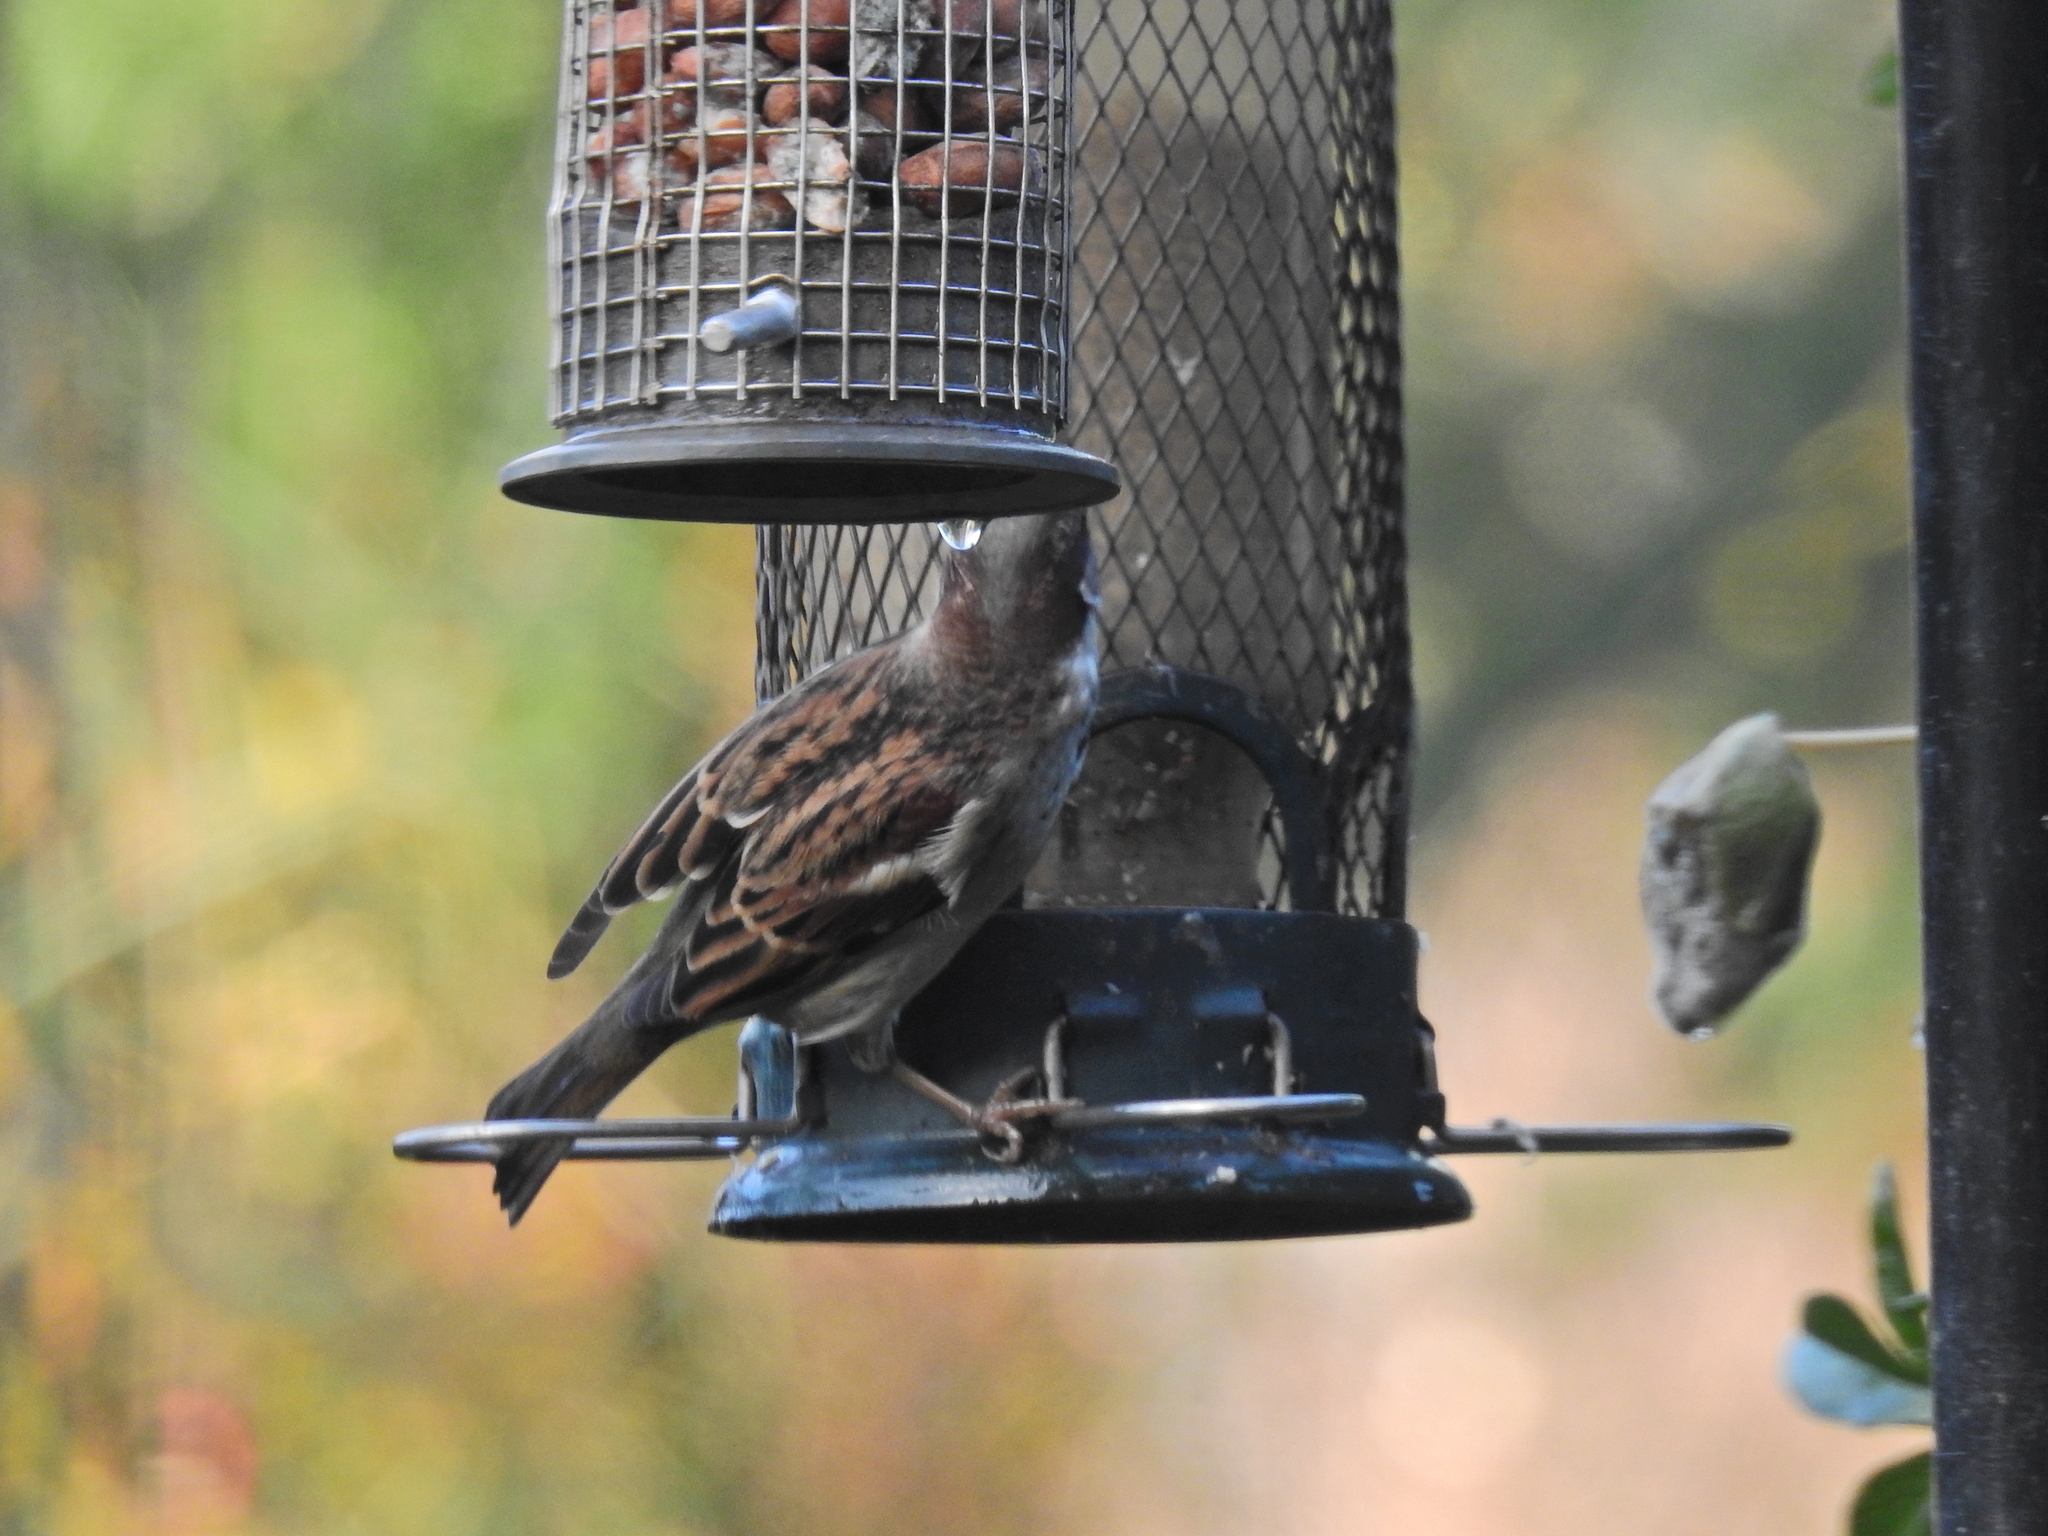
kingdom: Animalia
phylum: Chordata
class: Aves
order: Passeriformes
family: Passeridae
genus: Passer
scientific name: Passer domesticus
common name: House sparrow
